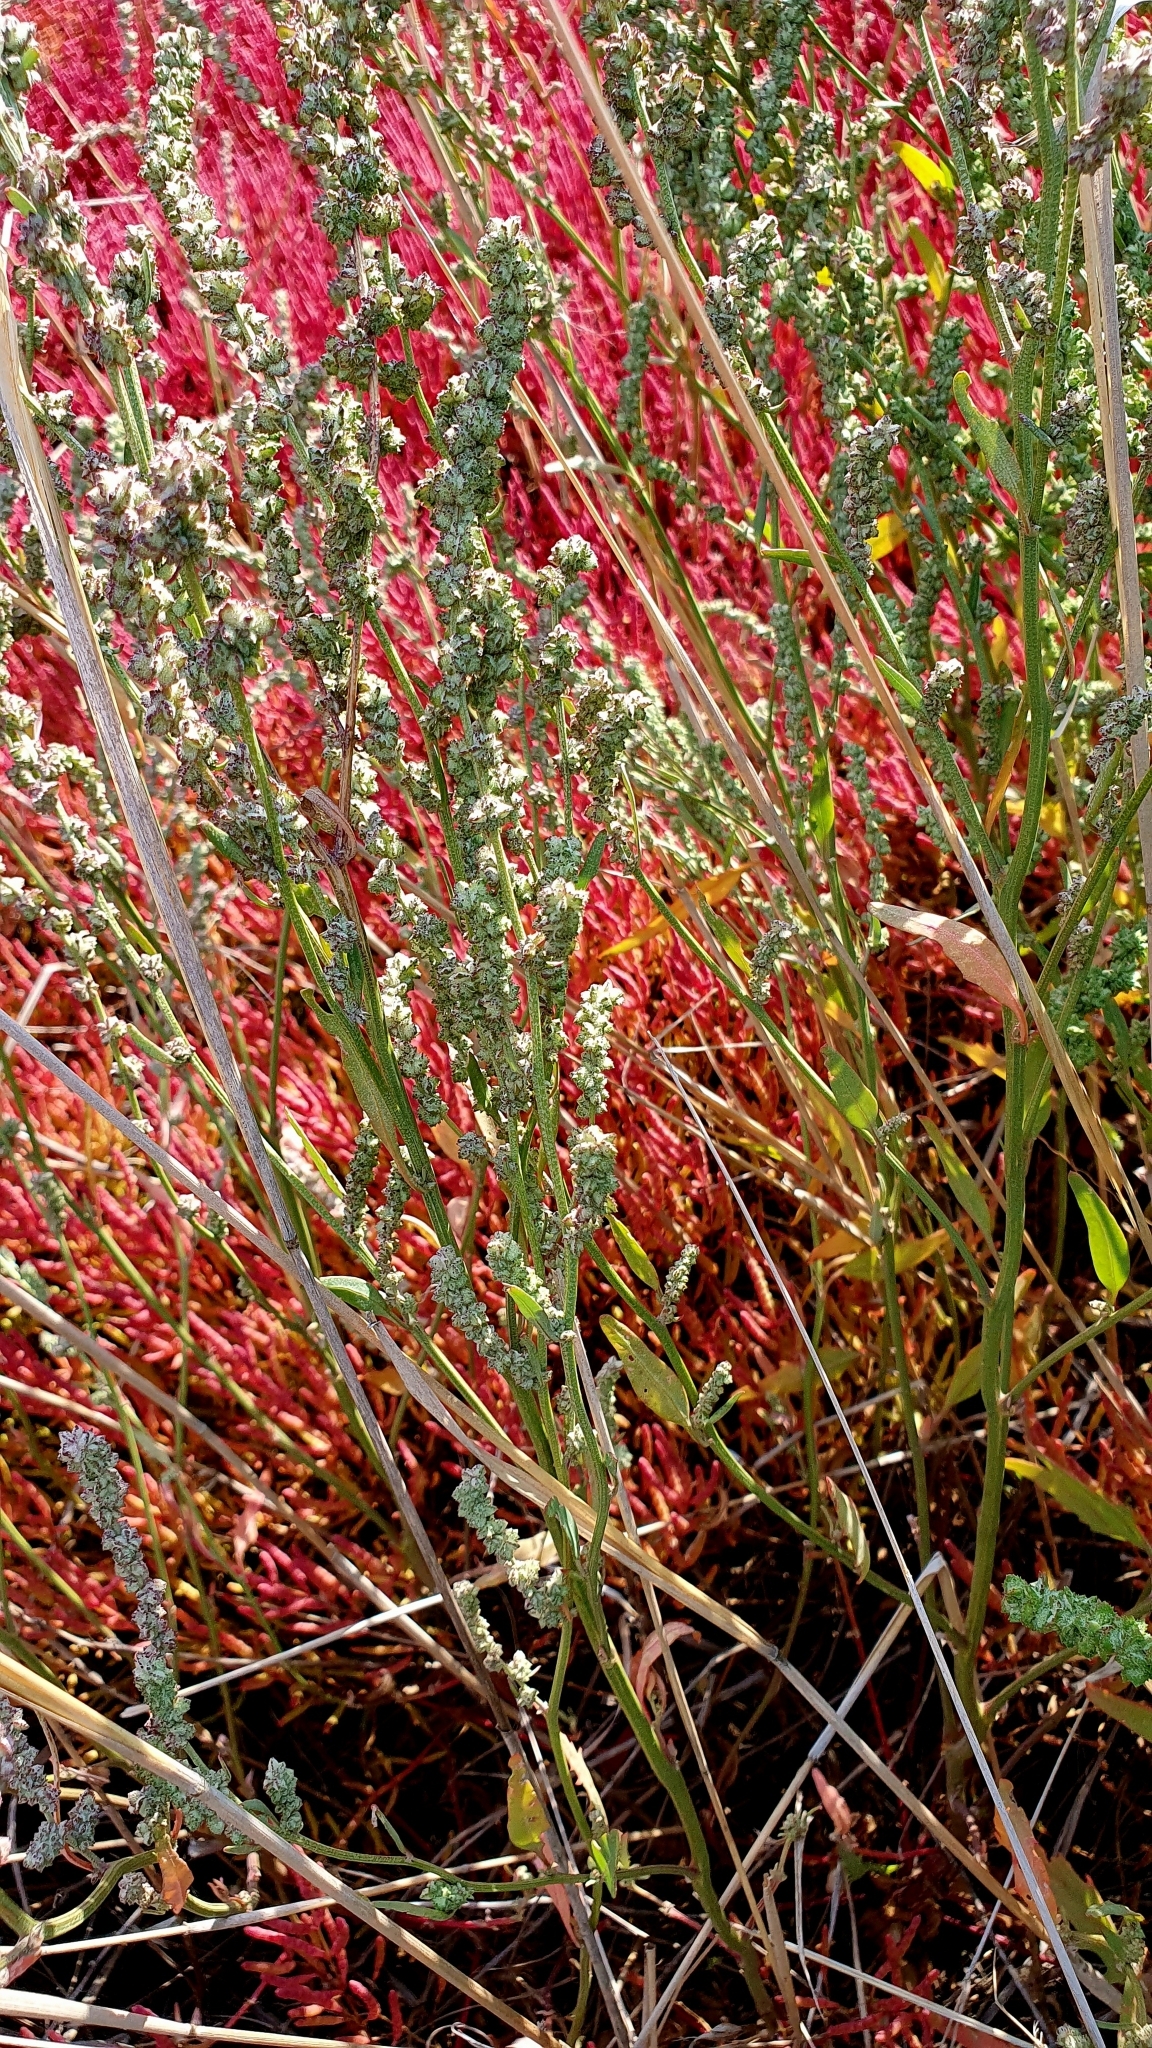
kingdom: Plantae
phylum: Tracheophyta
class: Magnoliopsida
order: Caryophyllales
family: Amaranthaceae
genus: Atriplex
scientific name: Atriplex patens
